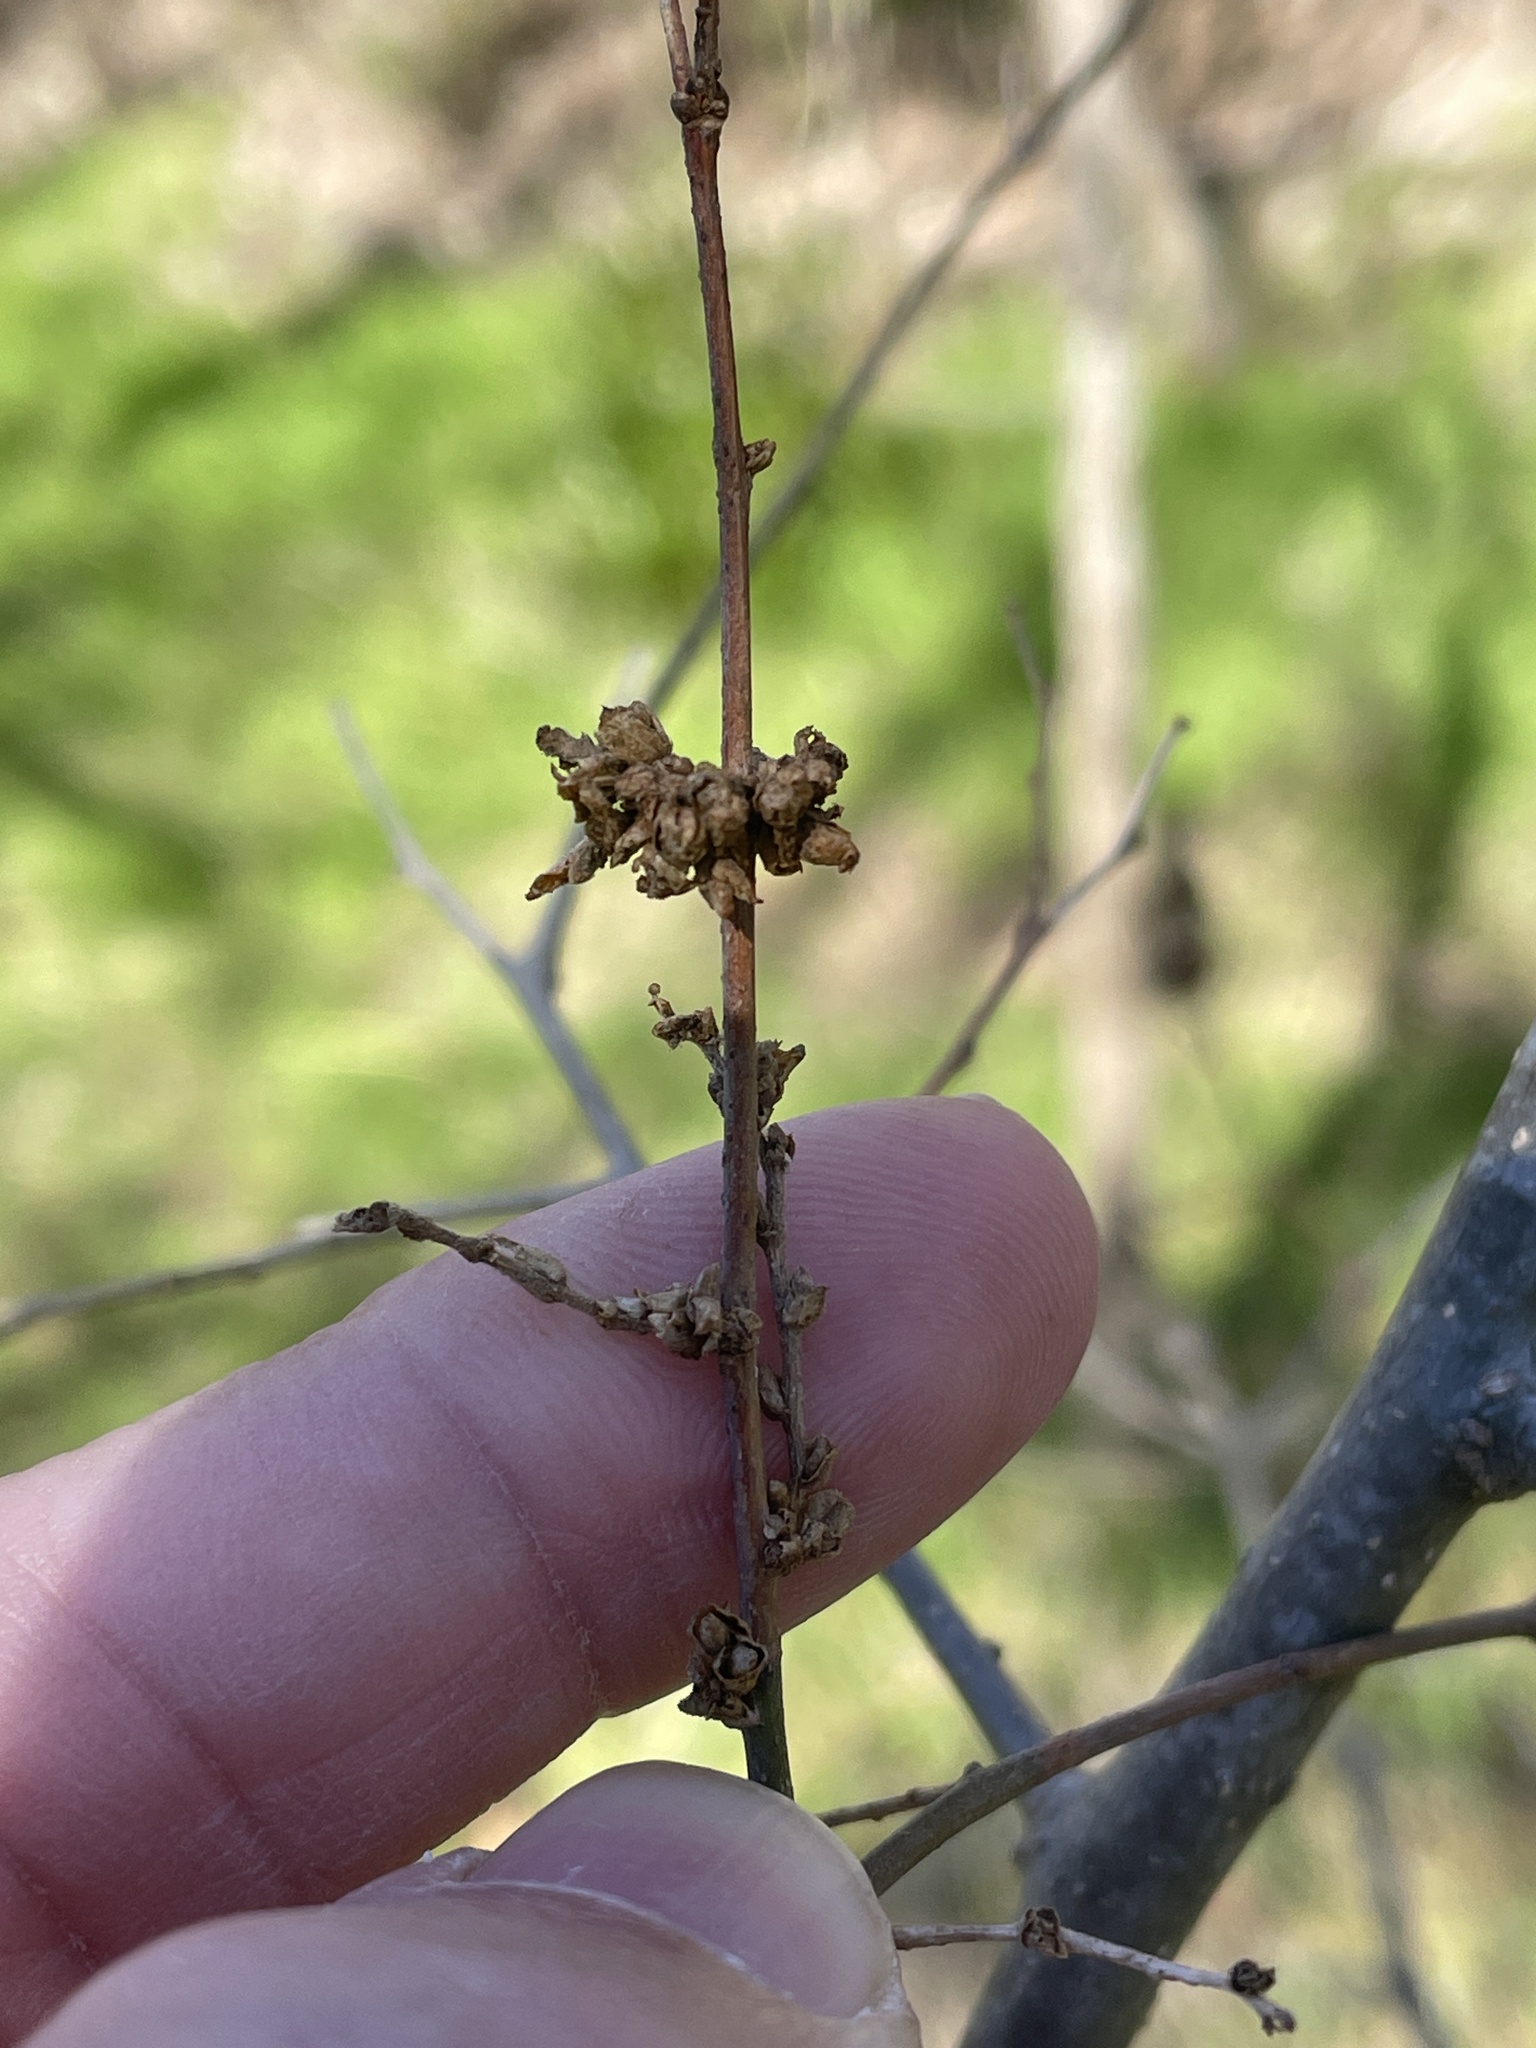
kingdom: Animalia
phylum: Arthropoda
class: Arachnida
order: Trombidiformes
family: Eriophyidae
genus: Aceria
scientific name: Aceria
